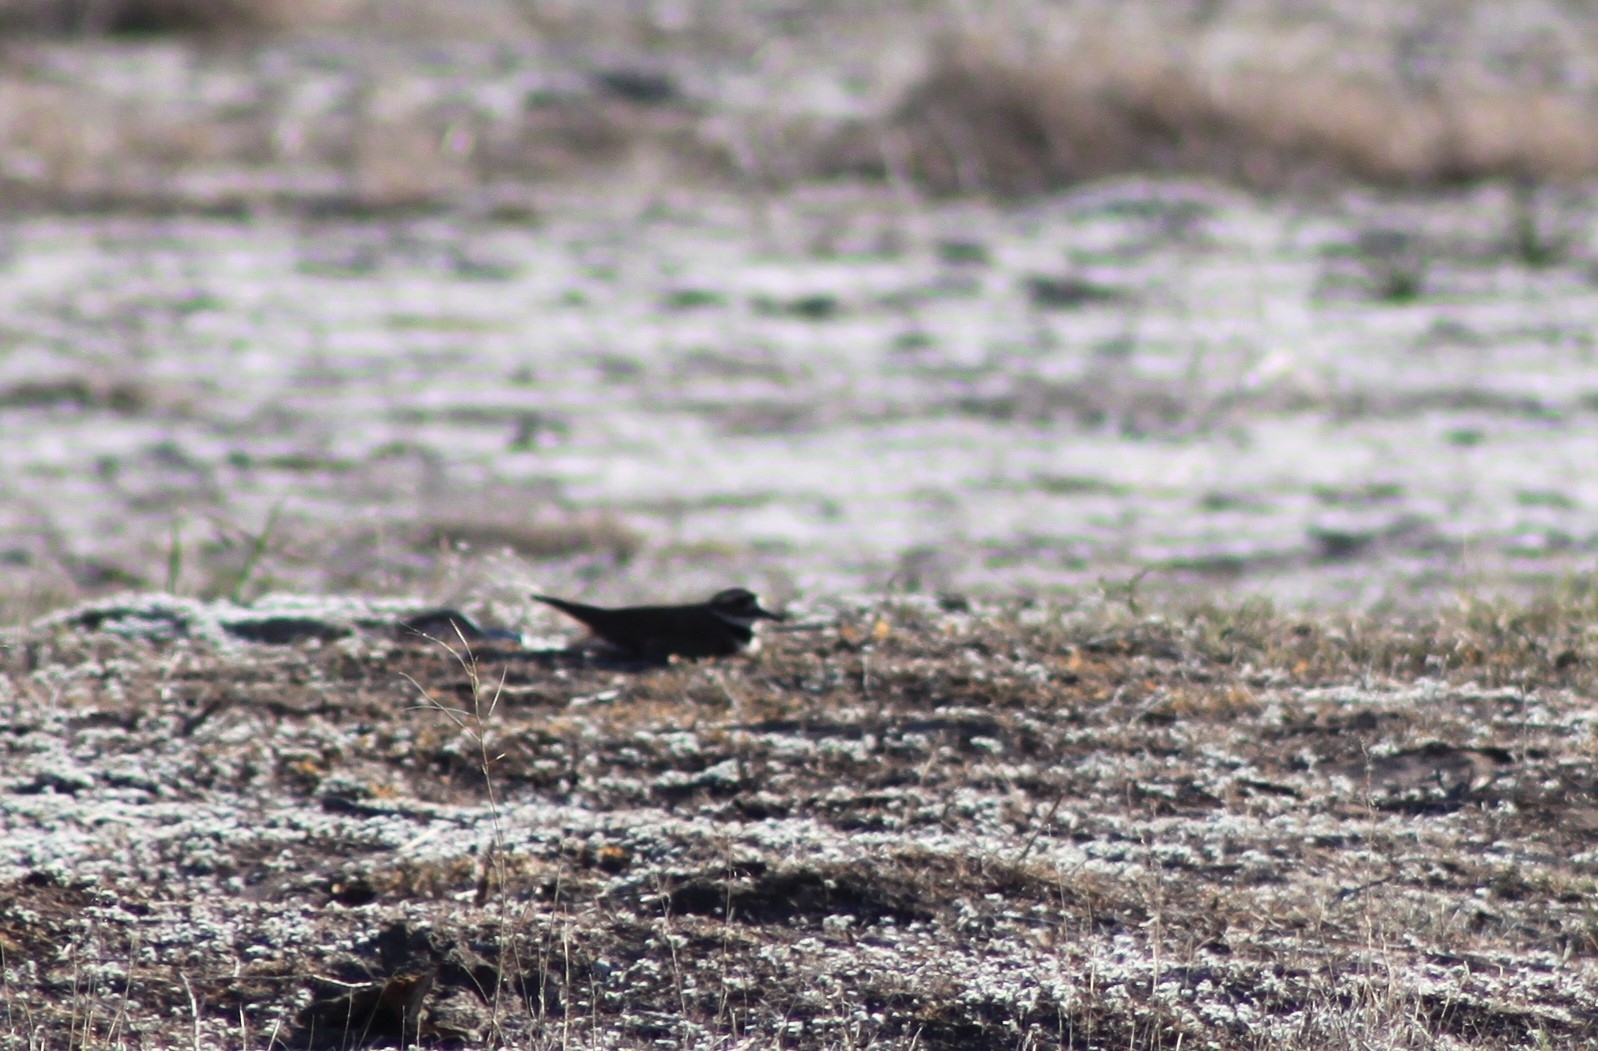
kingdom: Animalia
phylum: Chordata
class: Aves
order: Charadriiformes
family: Charadriidae
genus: Charadrius
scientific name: Charadrius vociferus
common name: Killdeer
